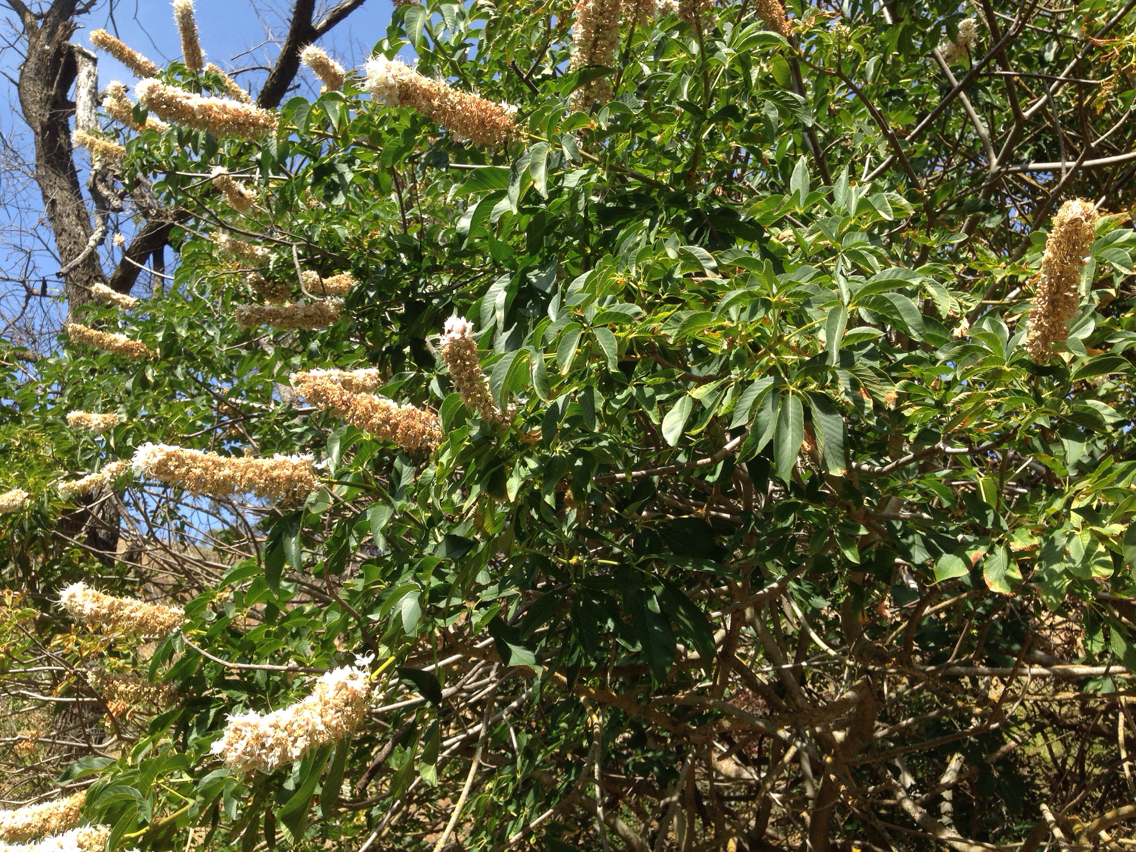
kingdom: Plantae
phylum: Tracheophyta
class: Magnoliopsida
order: Sapindales
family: Sapindaceae
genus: Aesculus
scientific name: Aesculus californica
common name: California buckeye
